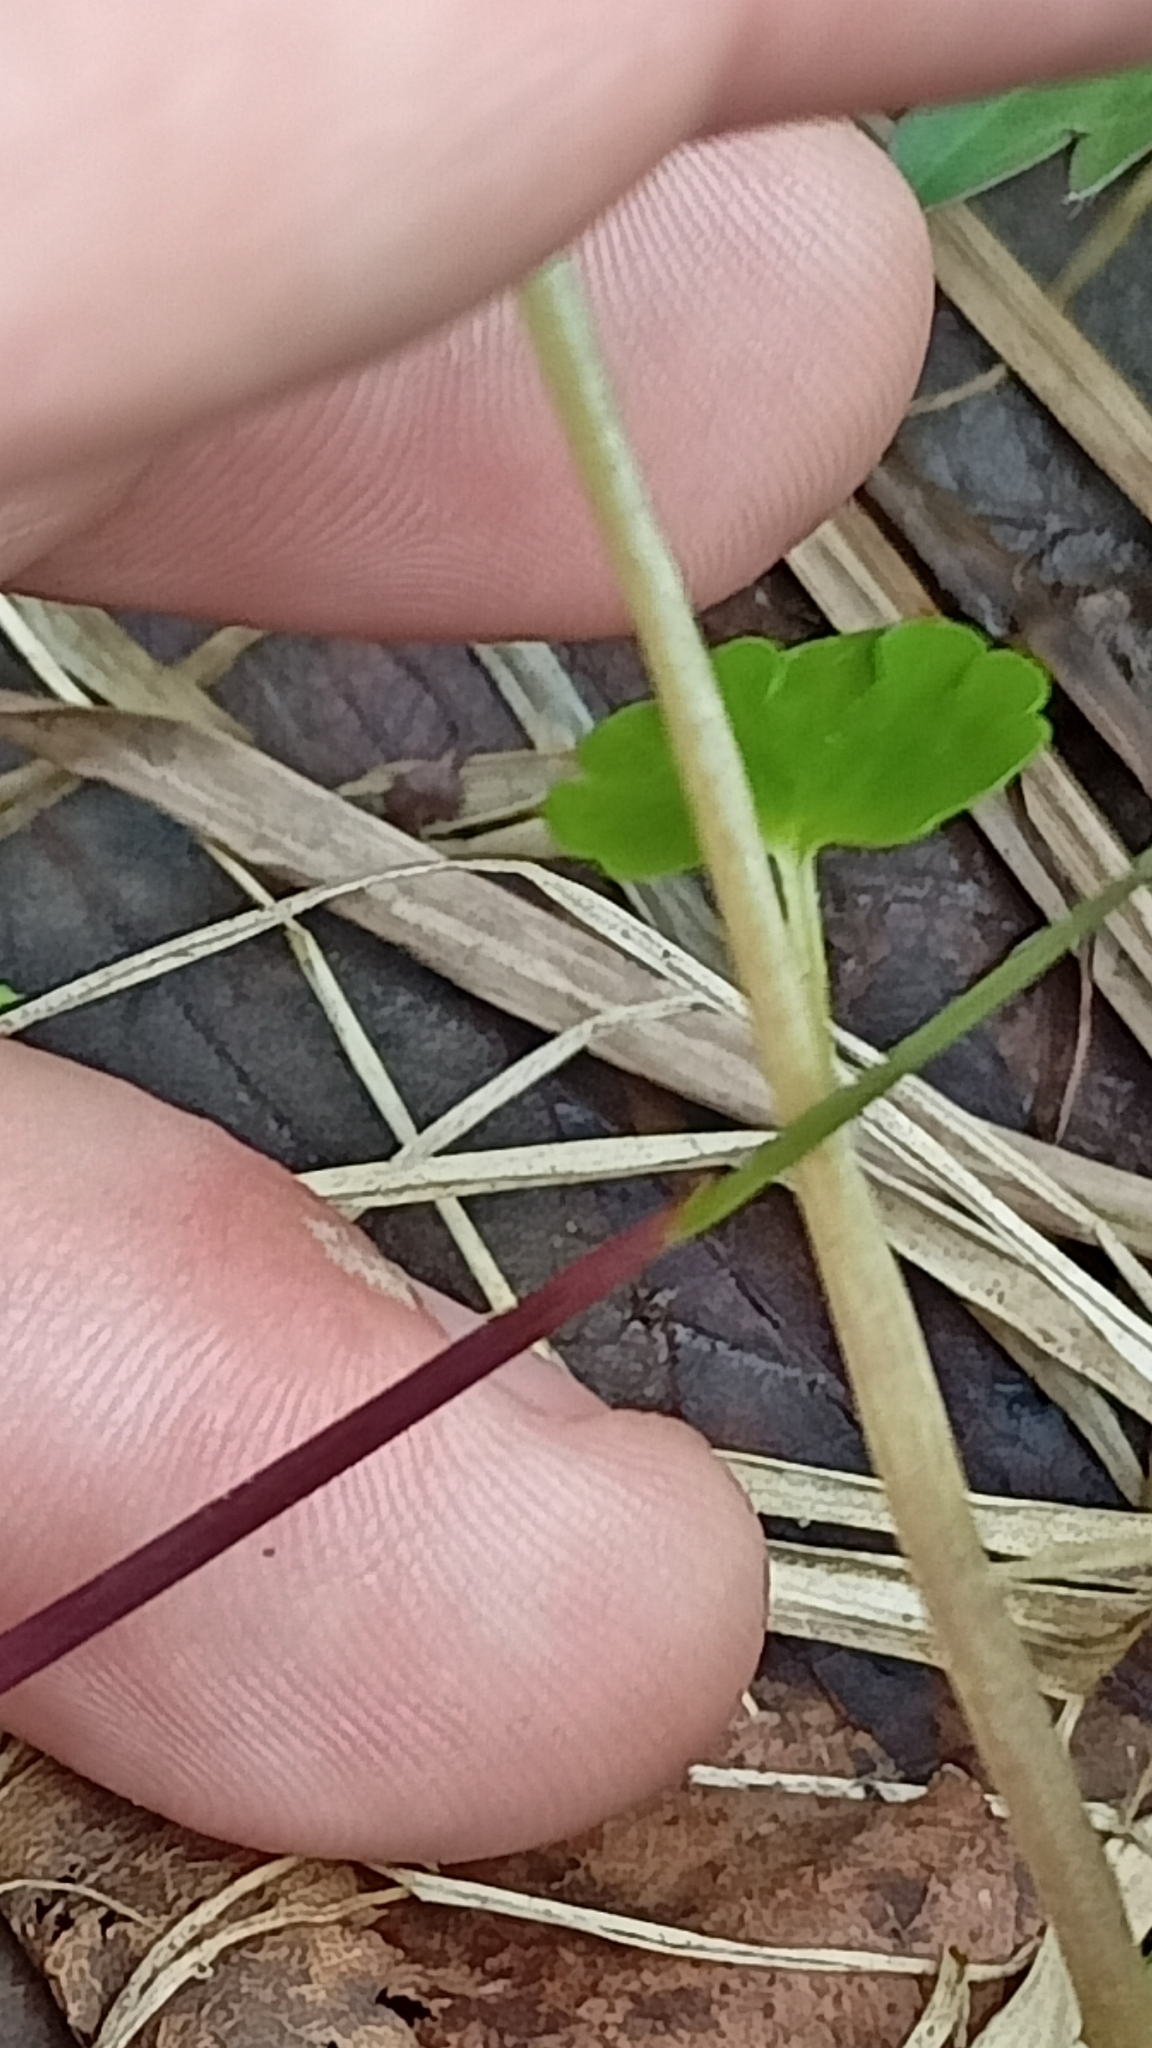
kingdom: Plantae
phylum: Tracheophyta
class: Magnoliopsida
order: Saxifragales
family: Saxifragaceae
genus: Chrysosplenium
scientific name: Chrysosplenium alternifolium
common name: Alternate-leaved golden-saxifrage
